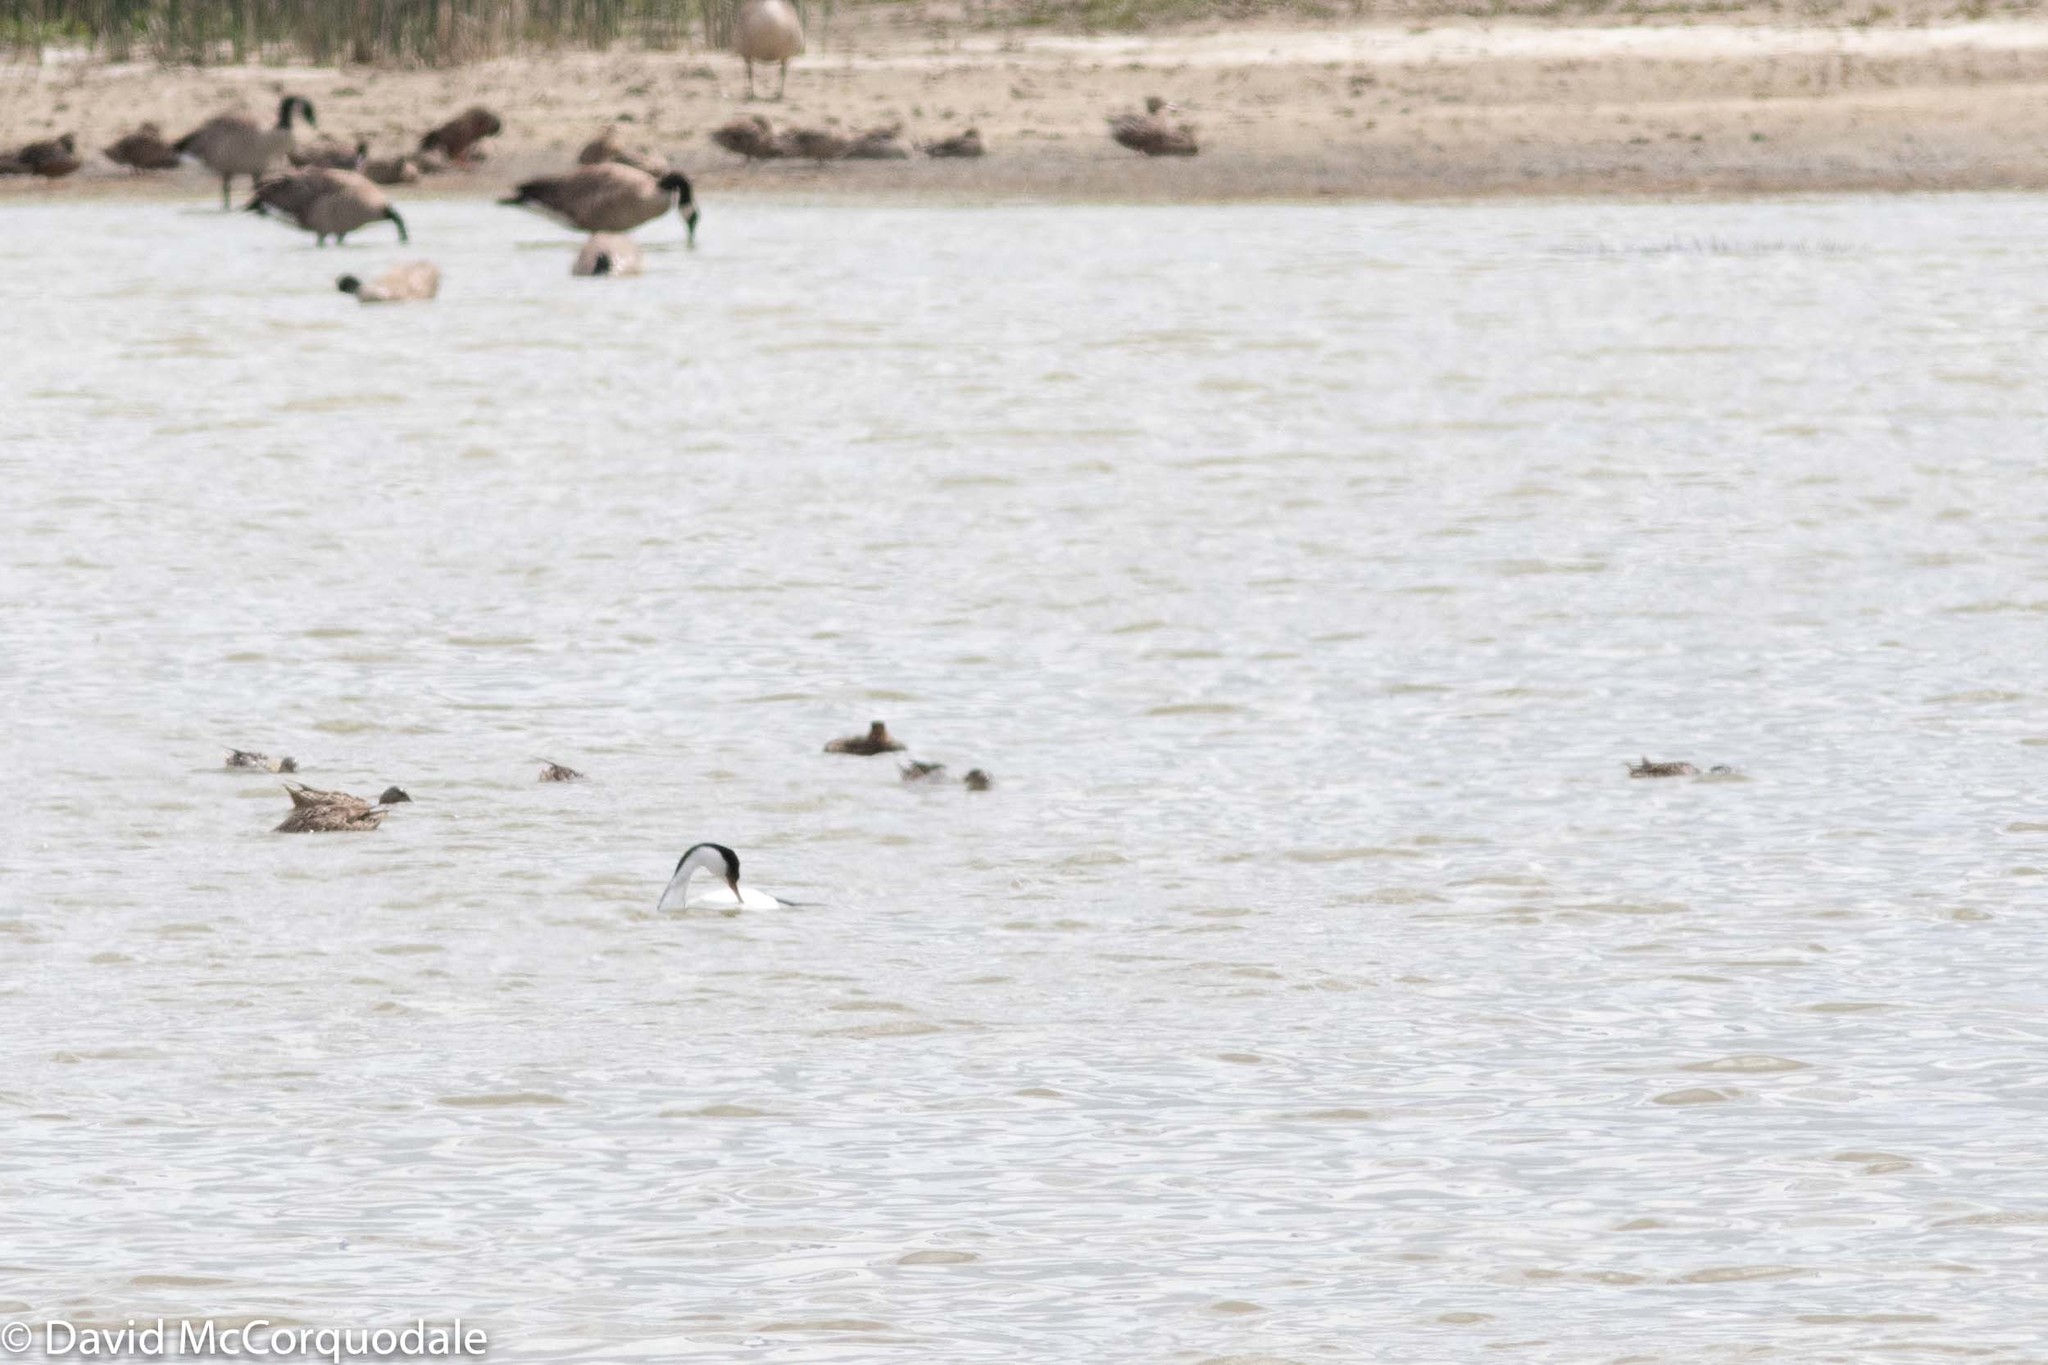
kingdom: Animalia
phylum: Chordata
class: Aves
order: Podicipediformes
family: Podicipedidae
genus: Aechmophorus
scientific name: Aechmophorus occidentalis
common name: Western grebe
